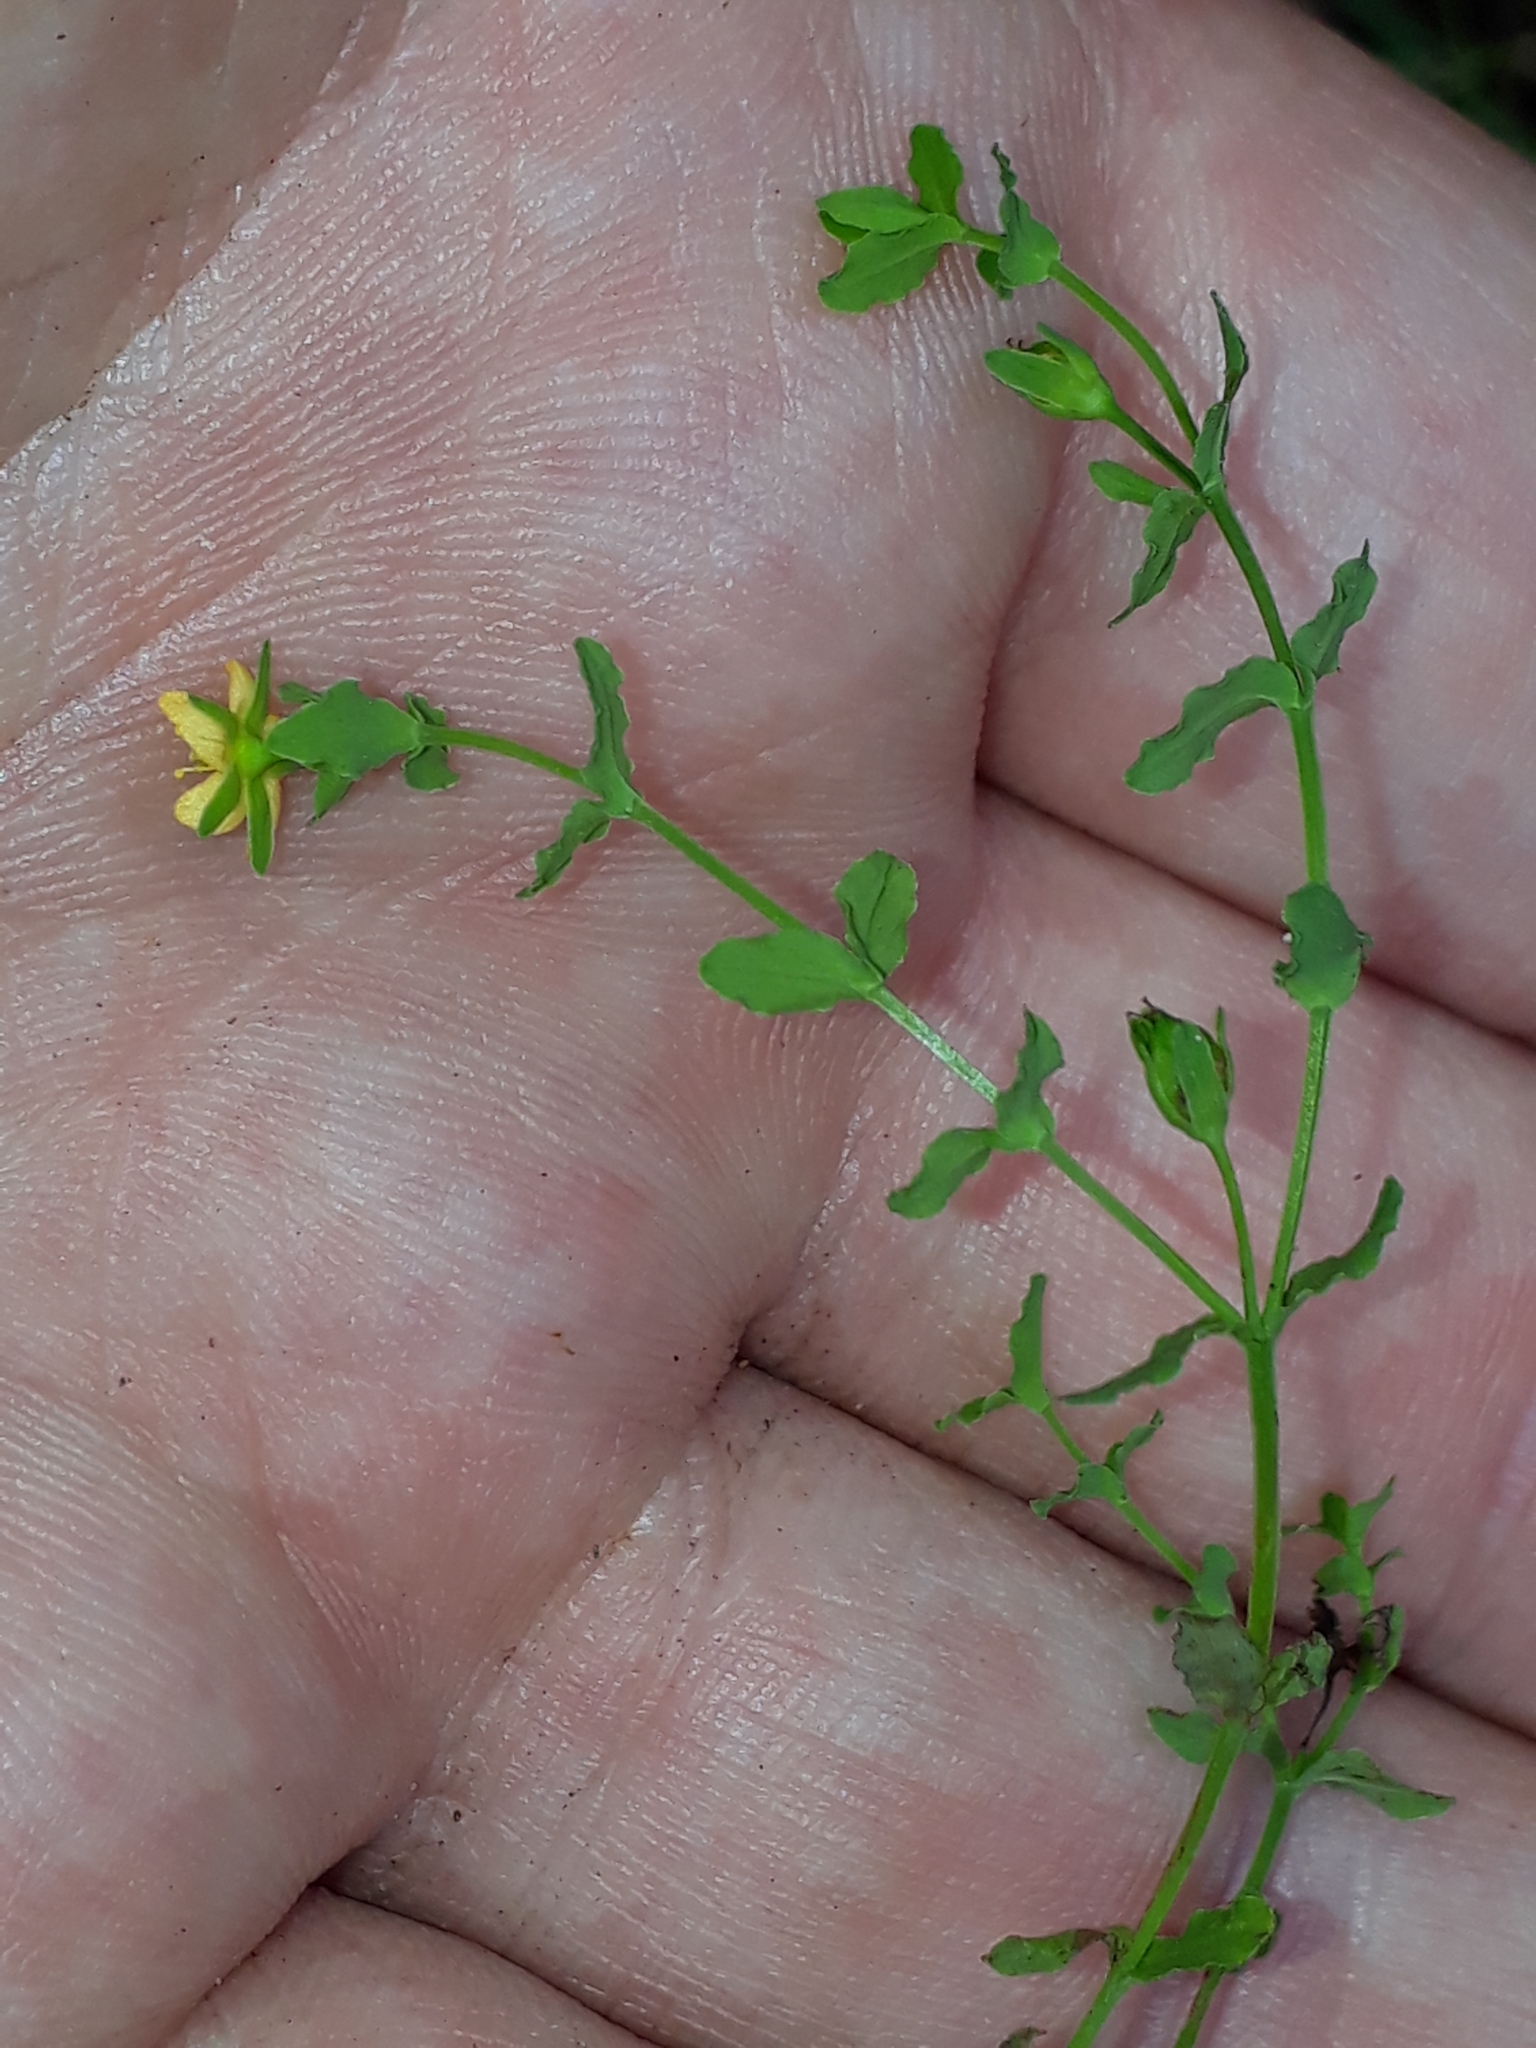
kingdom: Plantae
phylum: Tracheophyta
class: Magnoliopsida
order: Malpighiales
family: Hypericaceae
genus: Hypericum
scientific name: Hypericum japonicum
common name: Matted st. john's-wort
